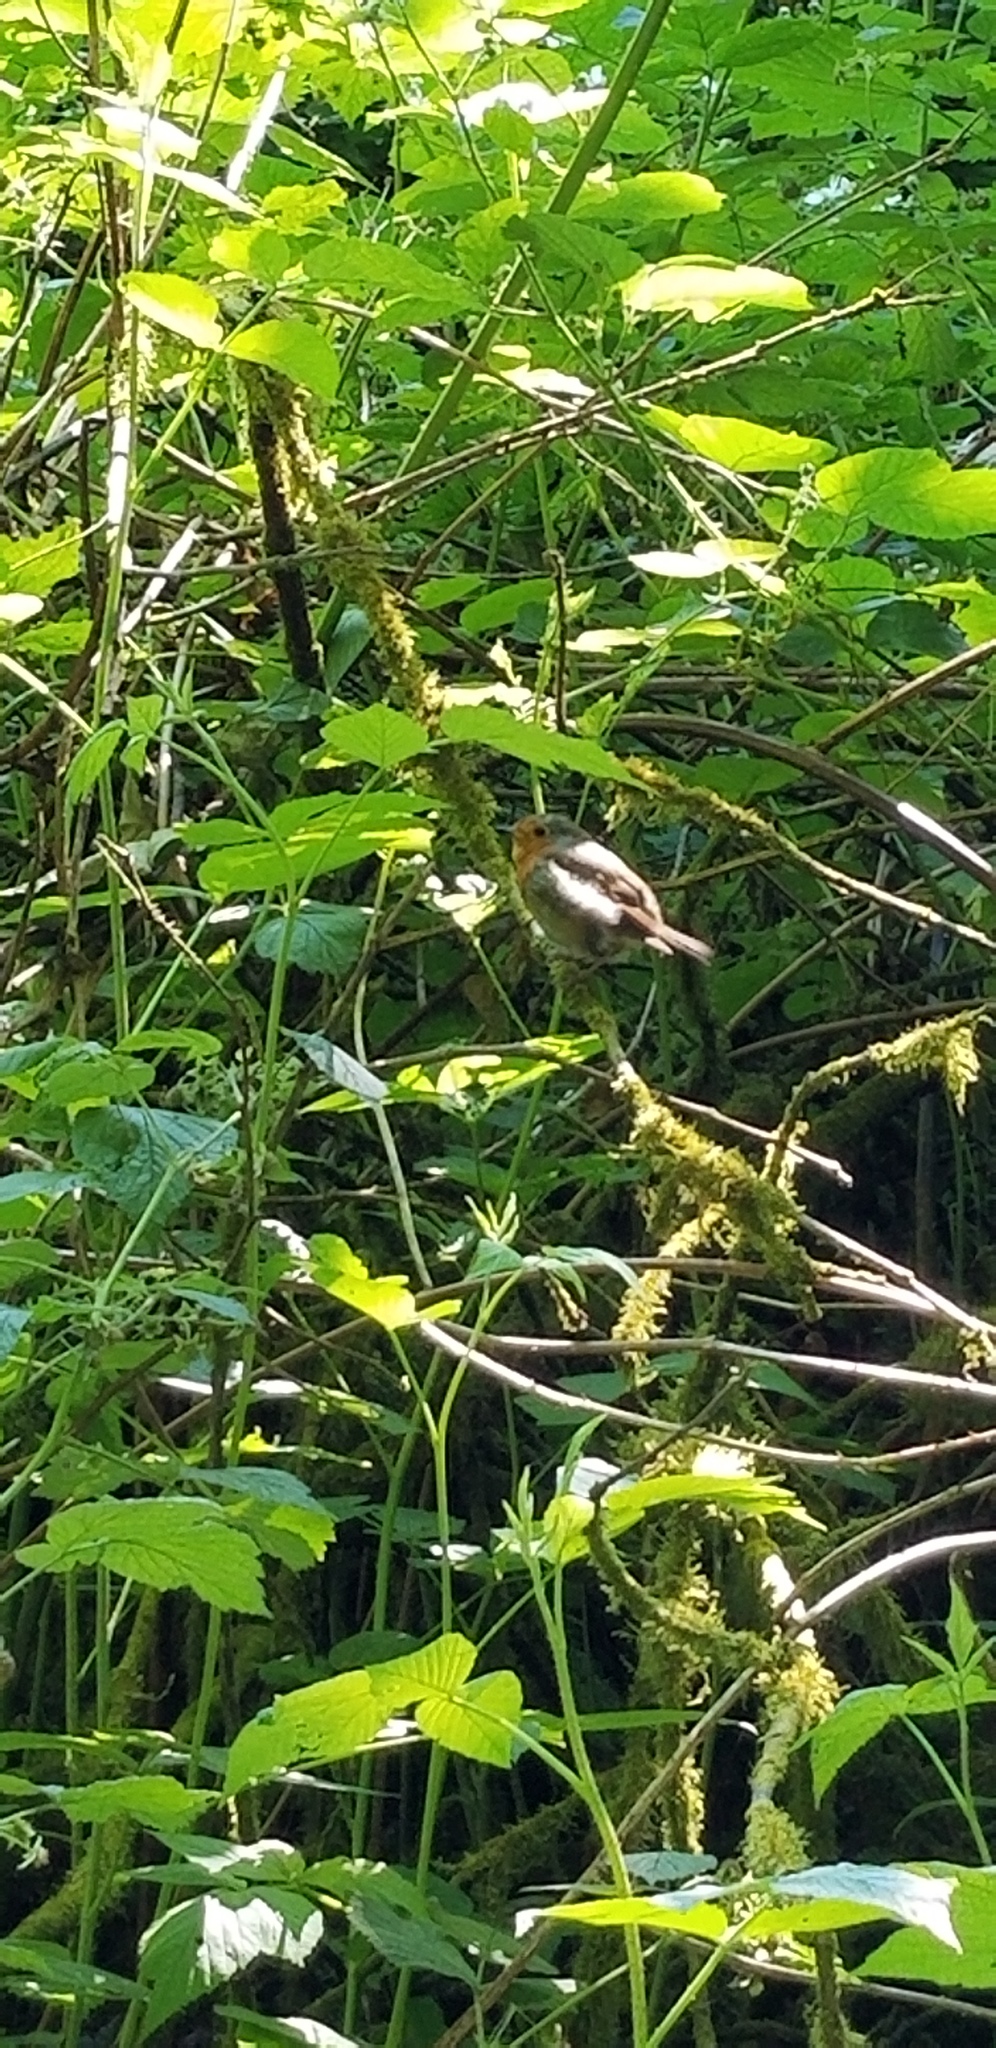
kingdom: Animalia
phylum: Chordata
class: Aves
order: Passeriformes
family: Muscicapidae
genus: Erithacus
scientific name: Erithacus rubecula
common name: European robin
